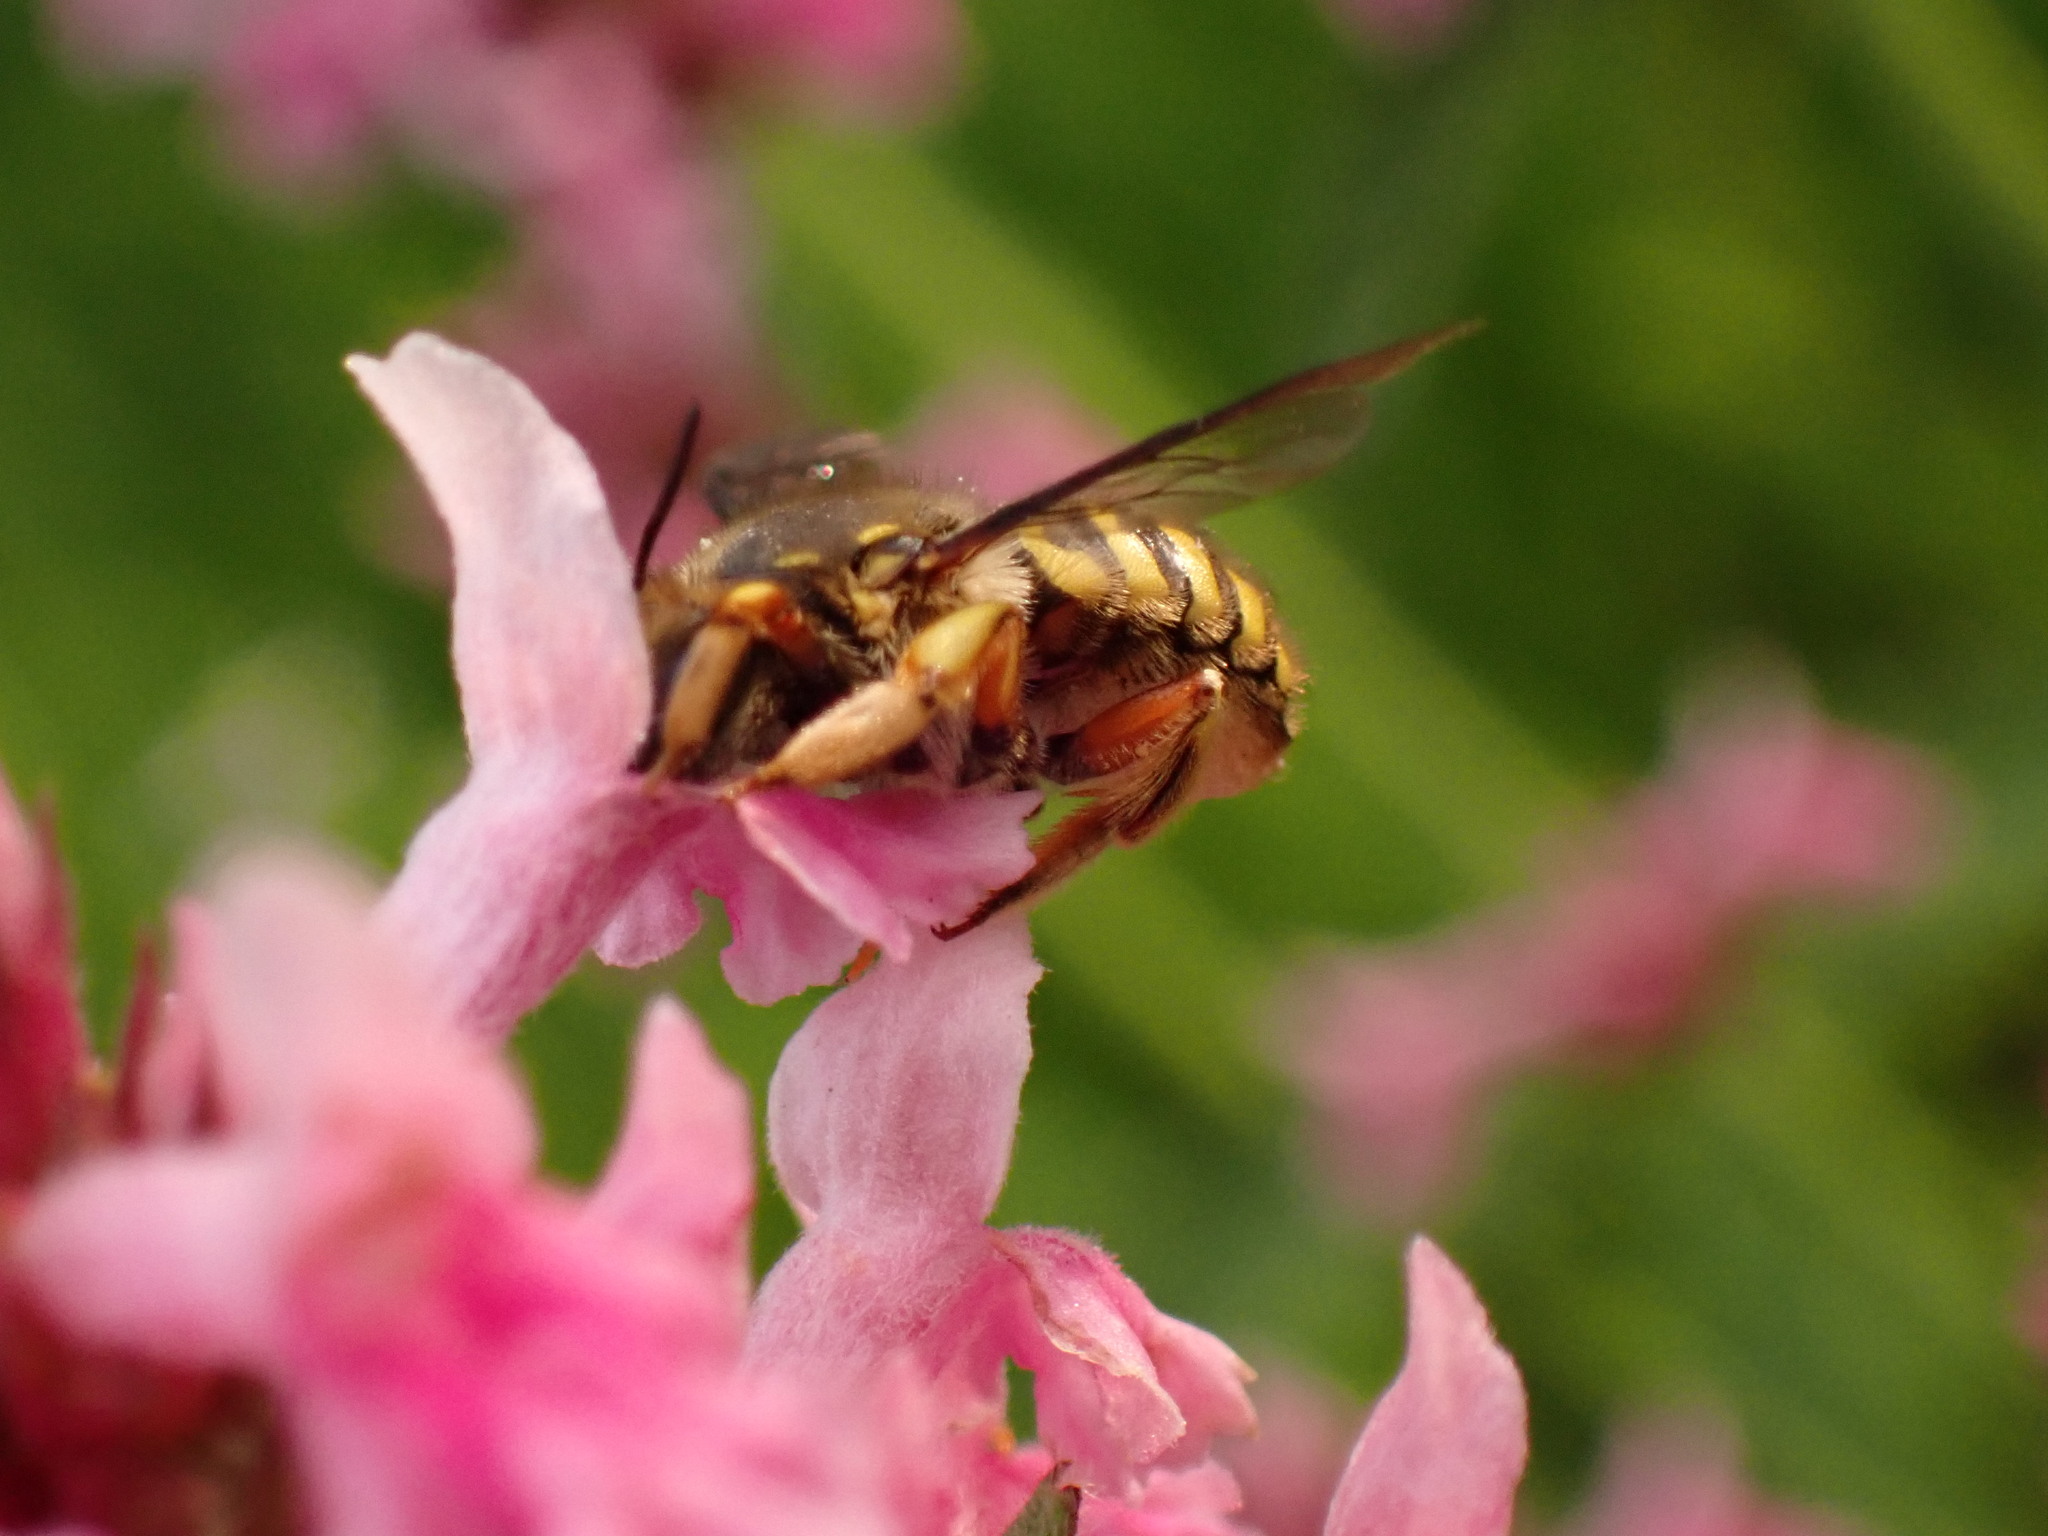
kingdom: Animalia
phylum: Arthropoda
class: Insecta
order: Hymenoptera
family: Megachilidae
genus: Anthidium
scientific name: Anthidium manicatum
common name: Wool carder bee
